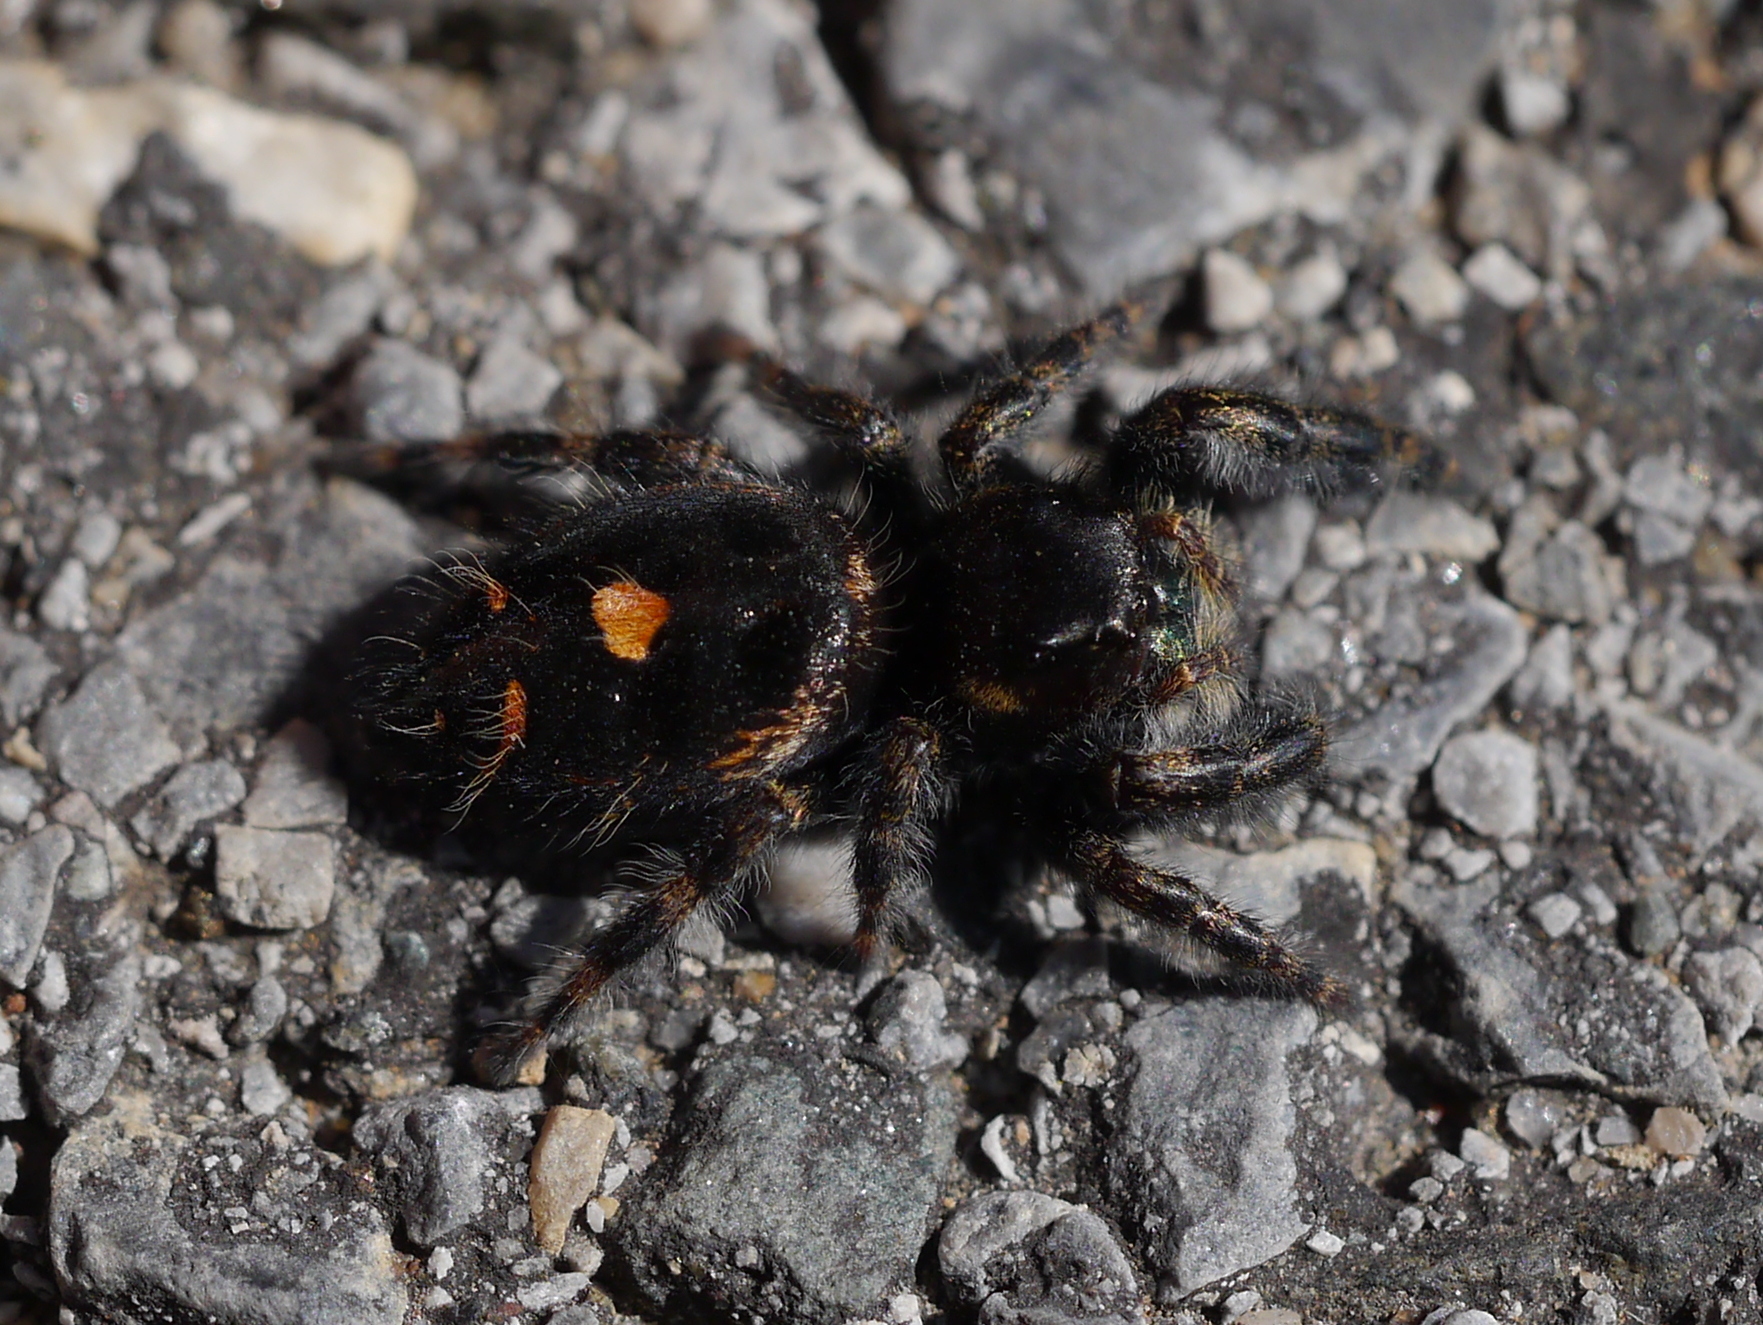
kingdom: Animalia
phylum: Arthropoda
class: Arachnida
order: Araneae
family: Salticidae
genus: Phidippus
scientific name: Phidippus audax
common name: Bold jumper
